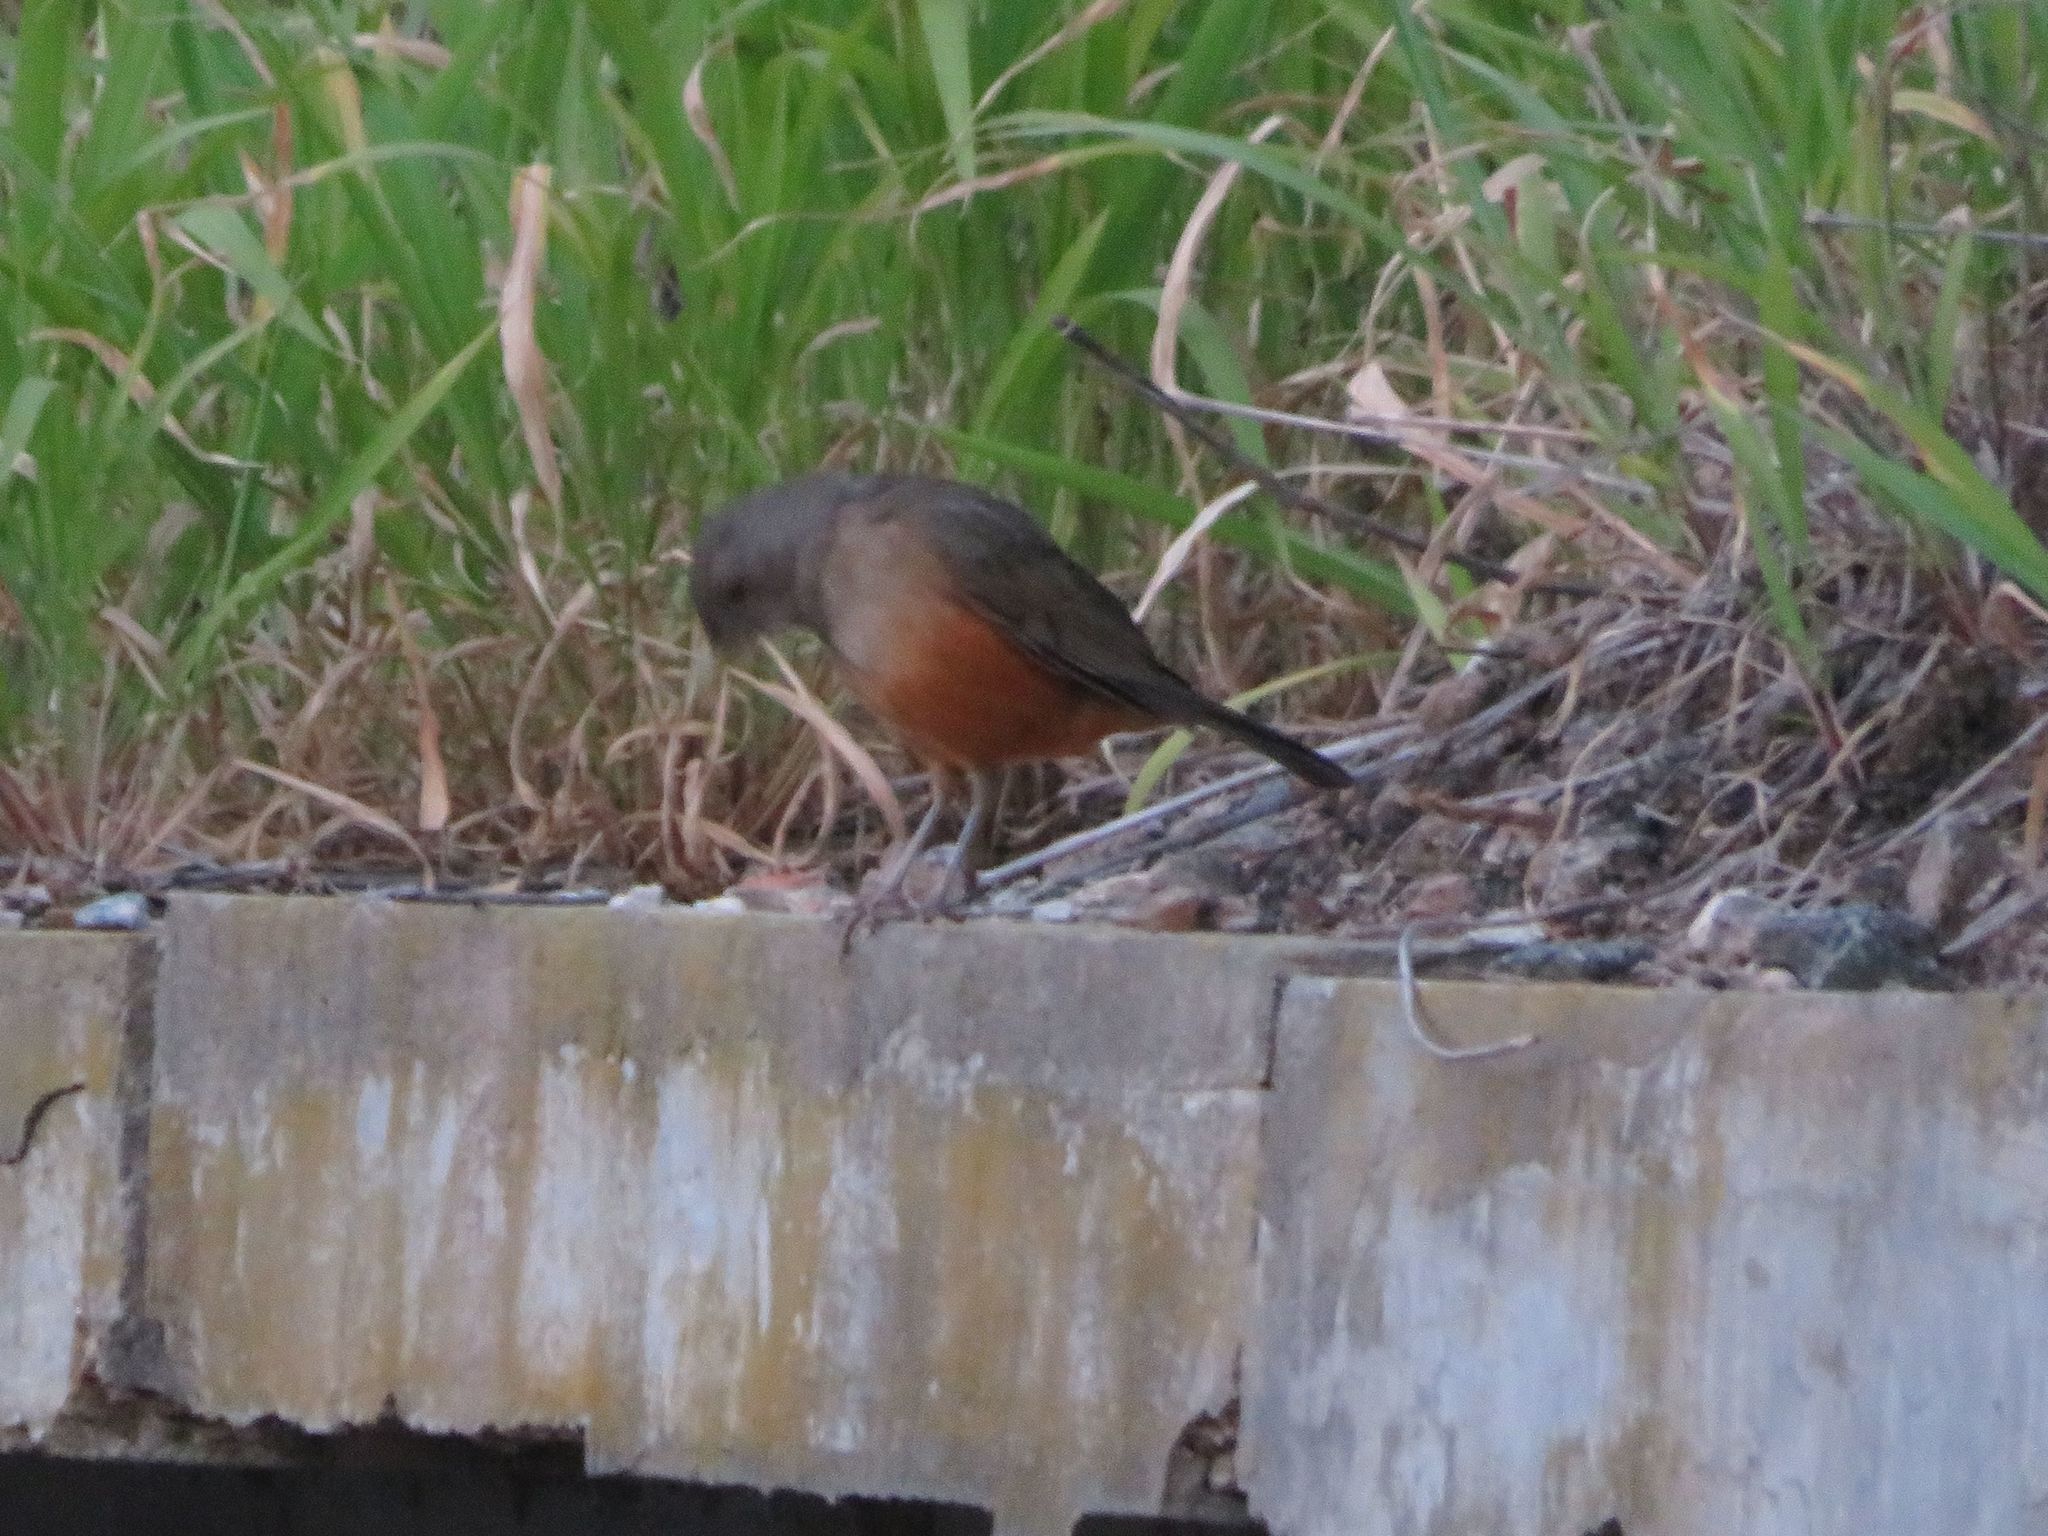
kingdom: Animalia
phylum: Chordata
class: Aves
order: Passeriformes
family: Turdidae
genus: Turdus
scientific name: Turdus rufiventris
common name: Rufous-bellied thrush
